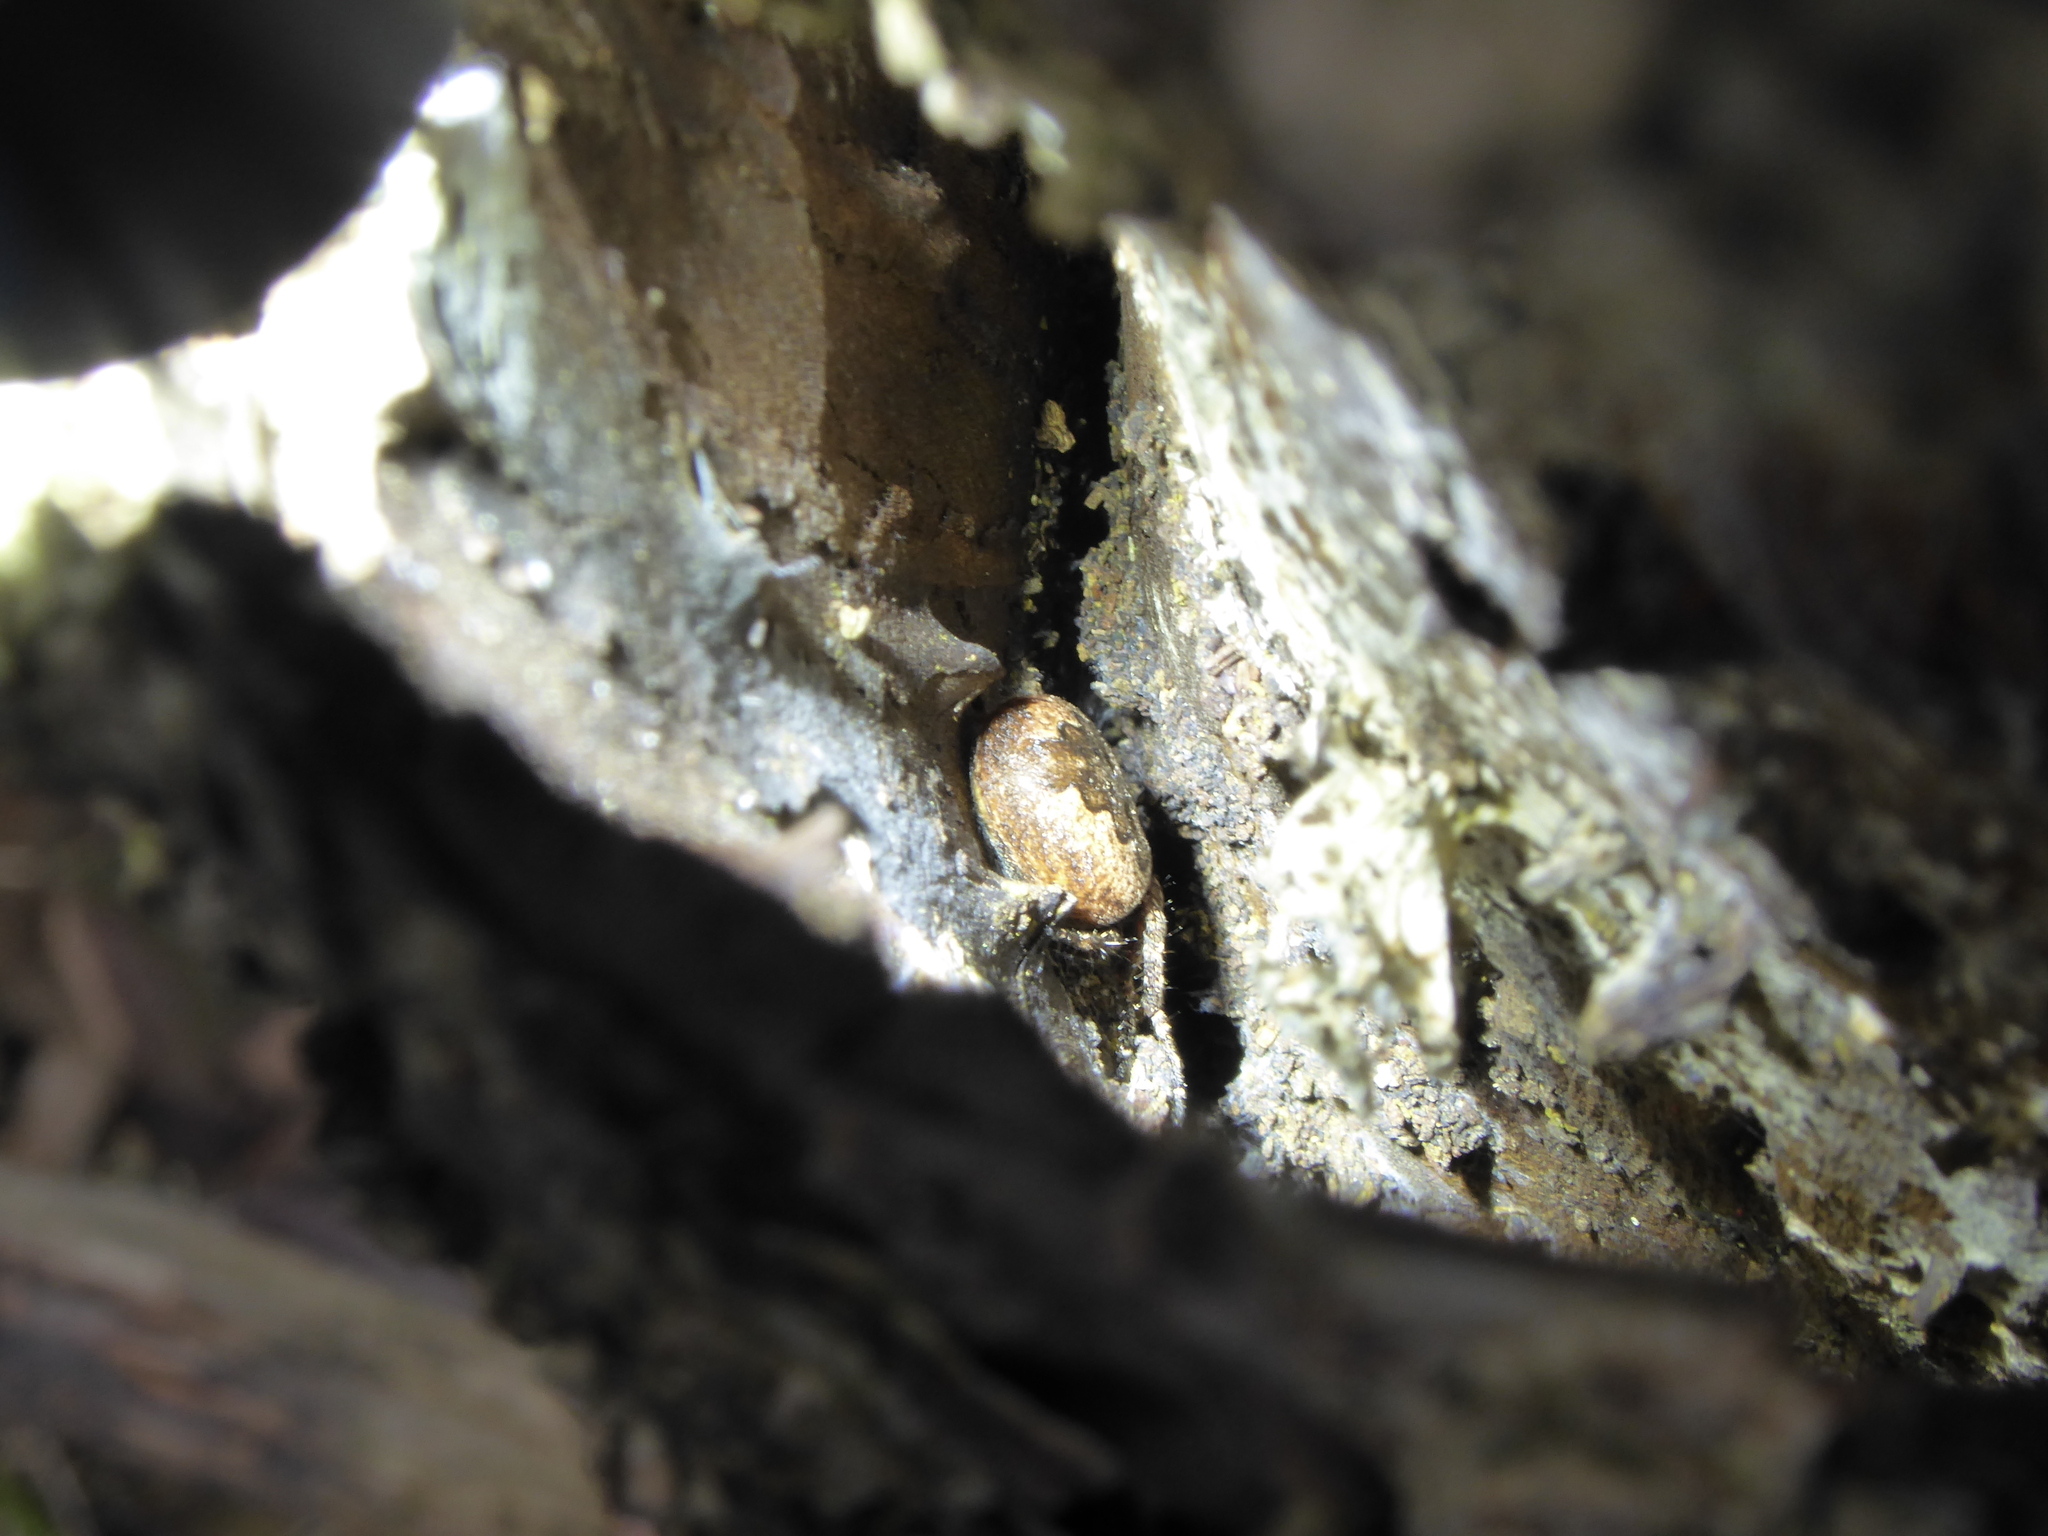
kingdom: Animalia
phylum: Arthropoda
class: Arachnida
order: Araneae
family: Araneidae
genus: Nuctenea
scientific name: Nuctenea umbratica
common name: Toad spider
